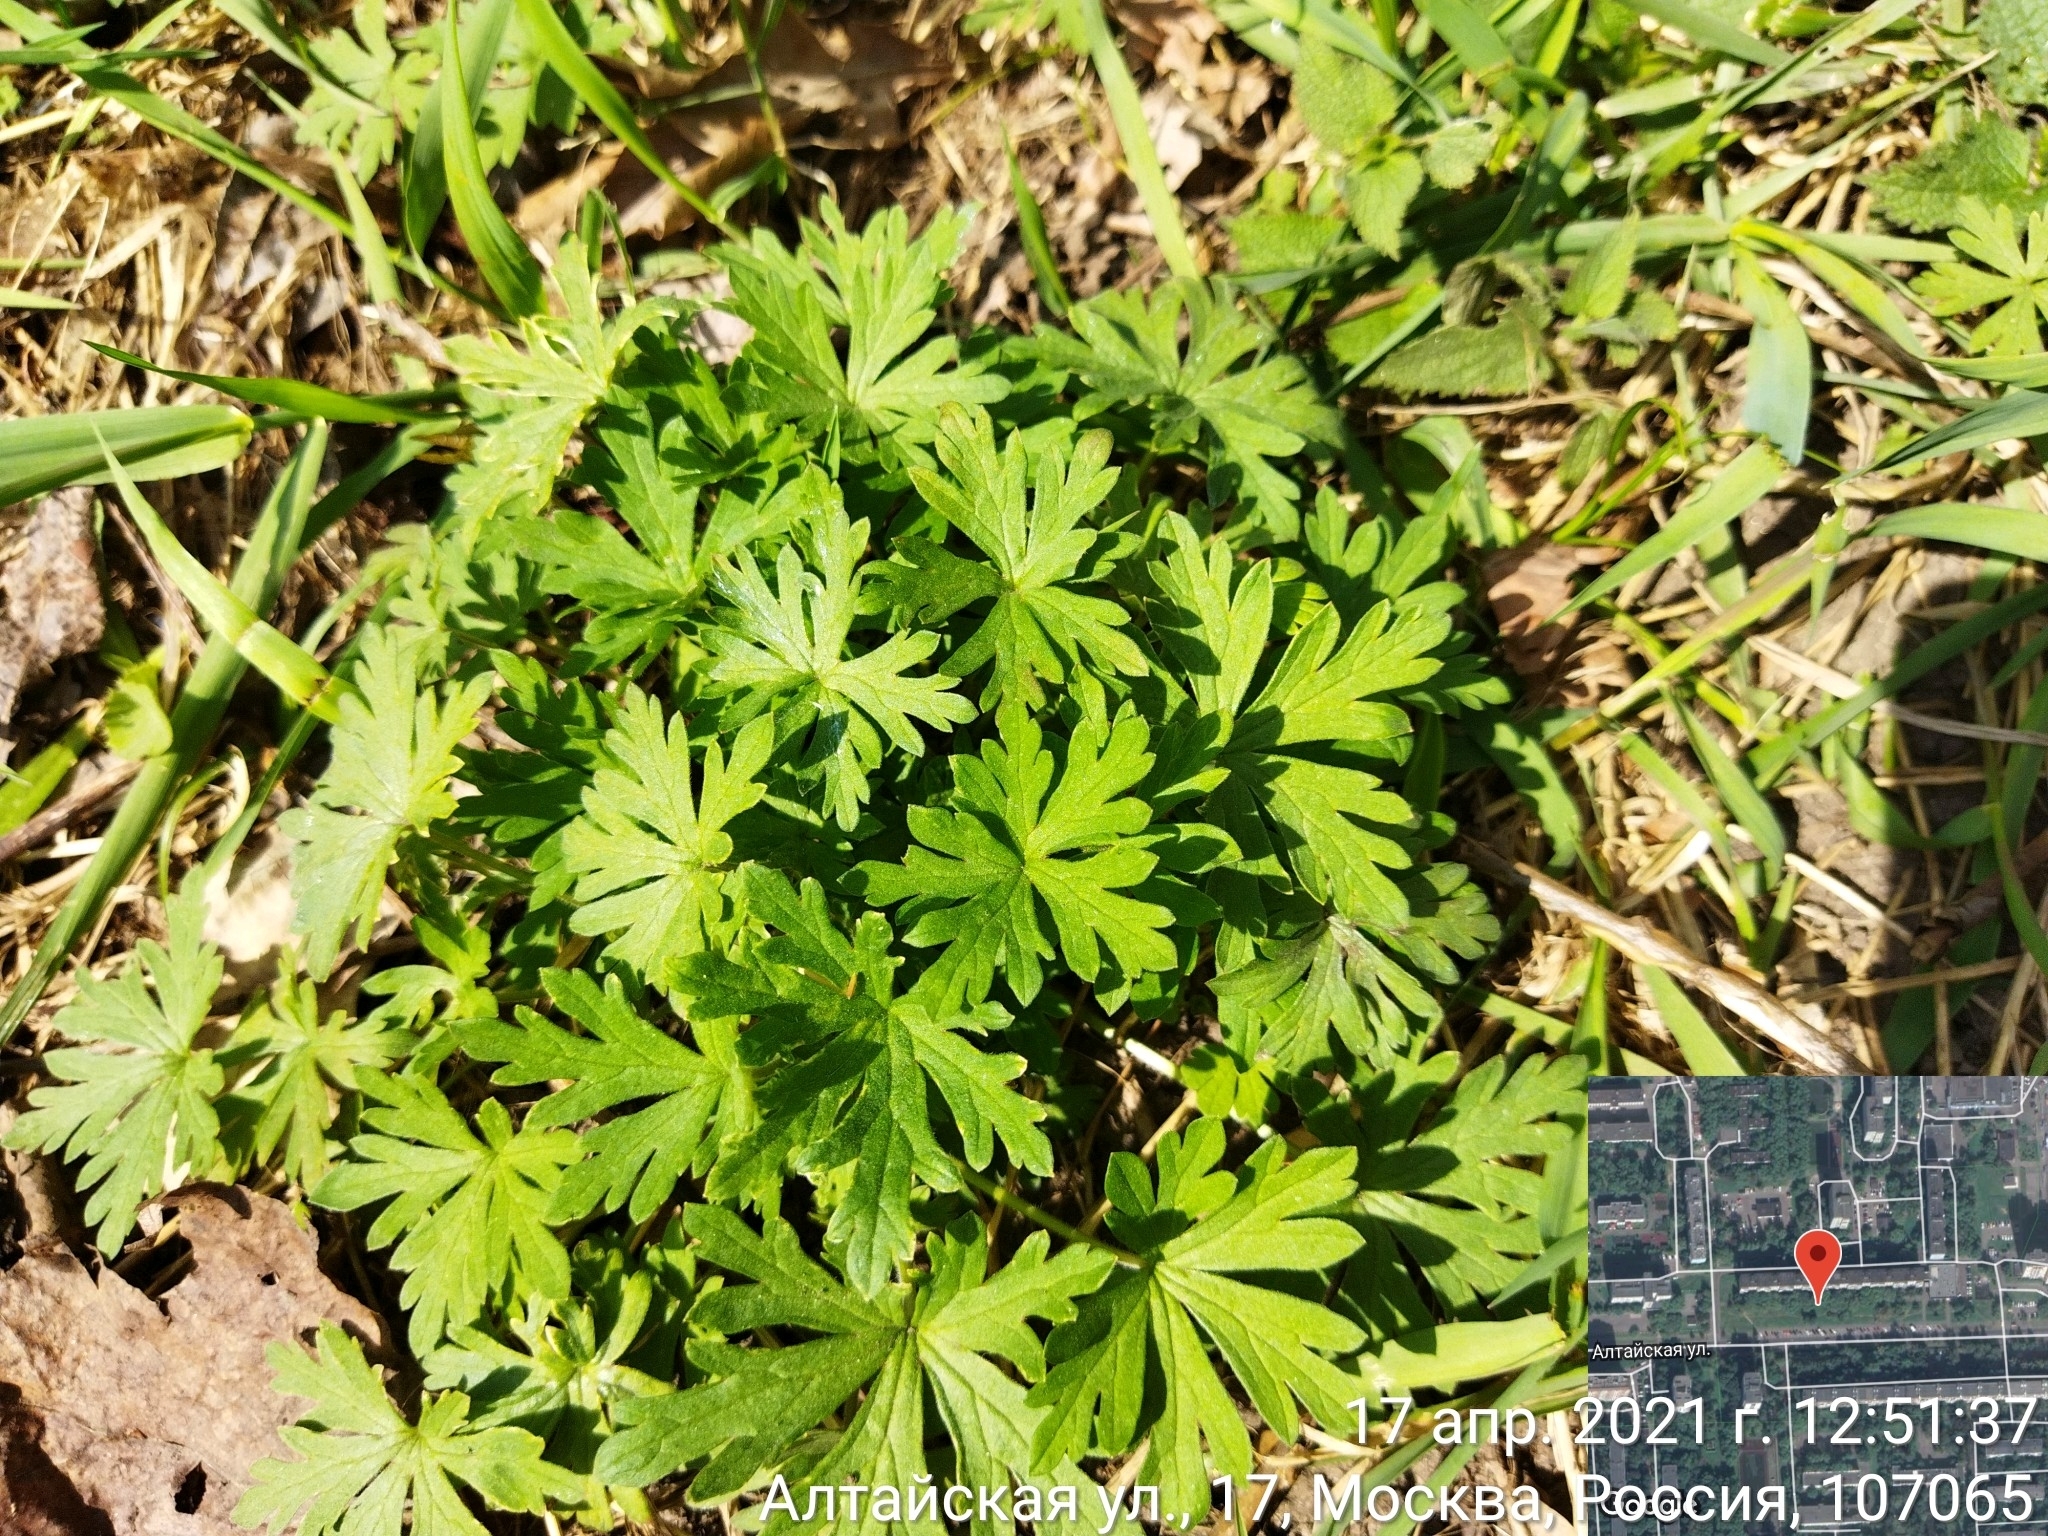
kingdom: Plantae
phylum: Tracheophyta
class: Magnoliopsida
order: Geraniales
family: Geraniaceae
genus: Geranium
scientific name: Geranium sibiricum
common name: Siberian crane's-bill
